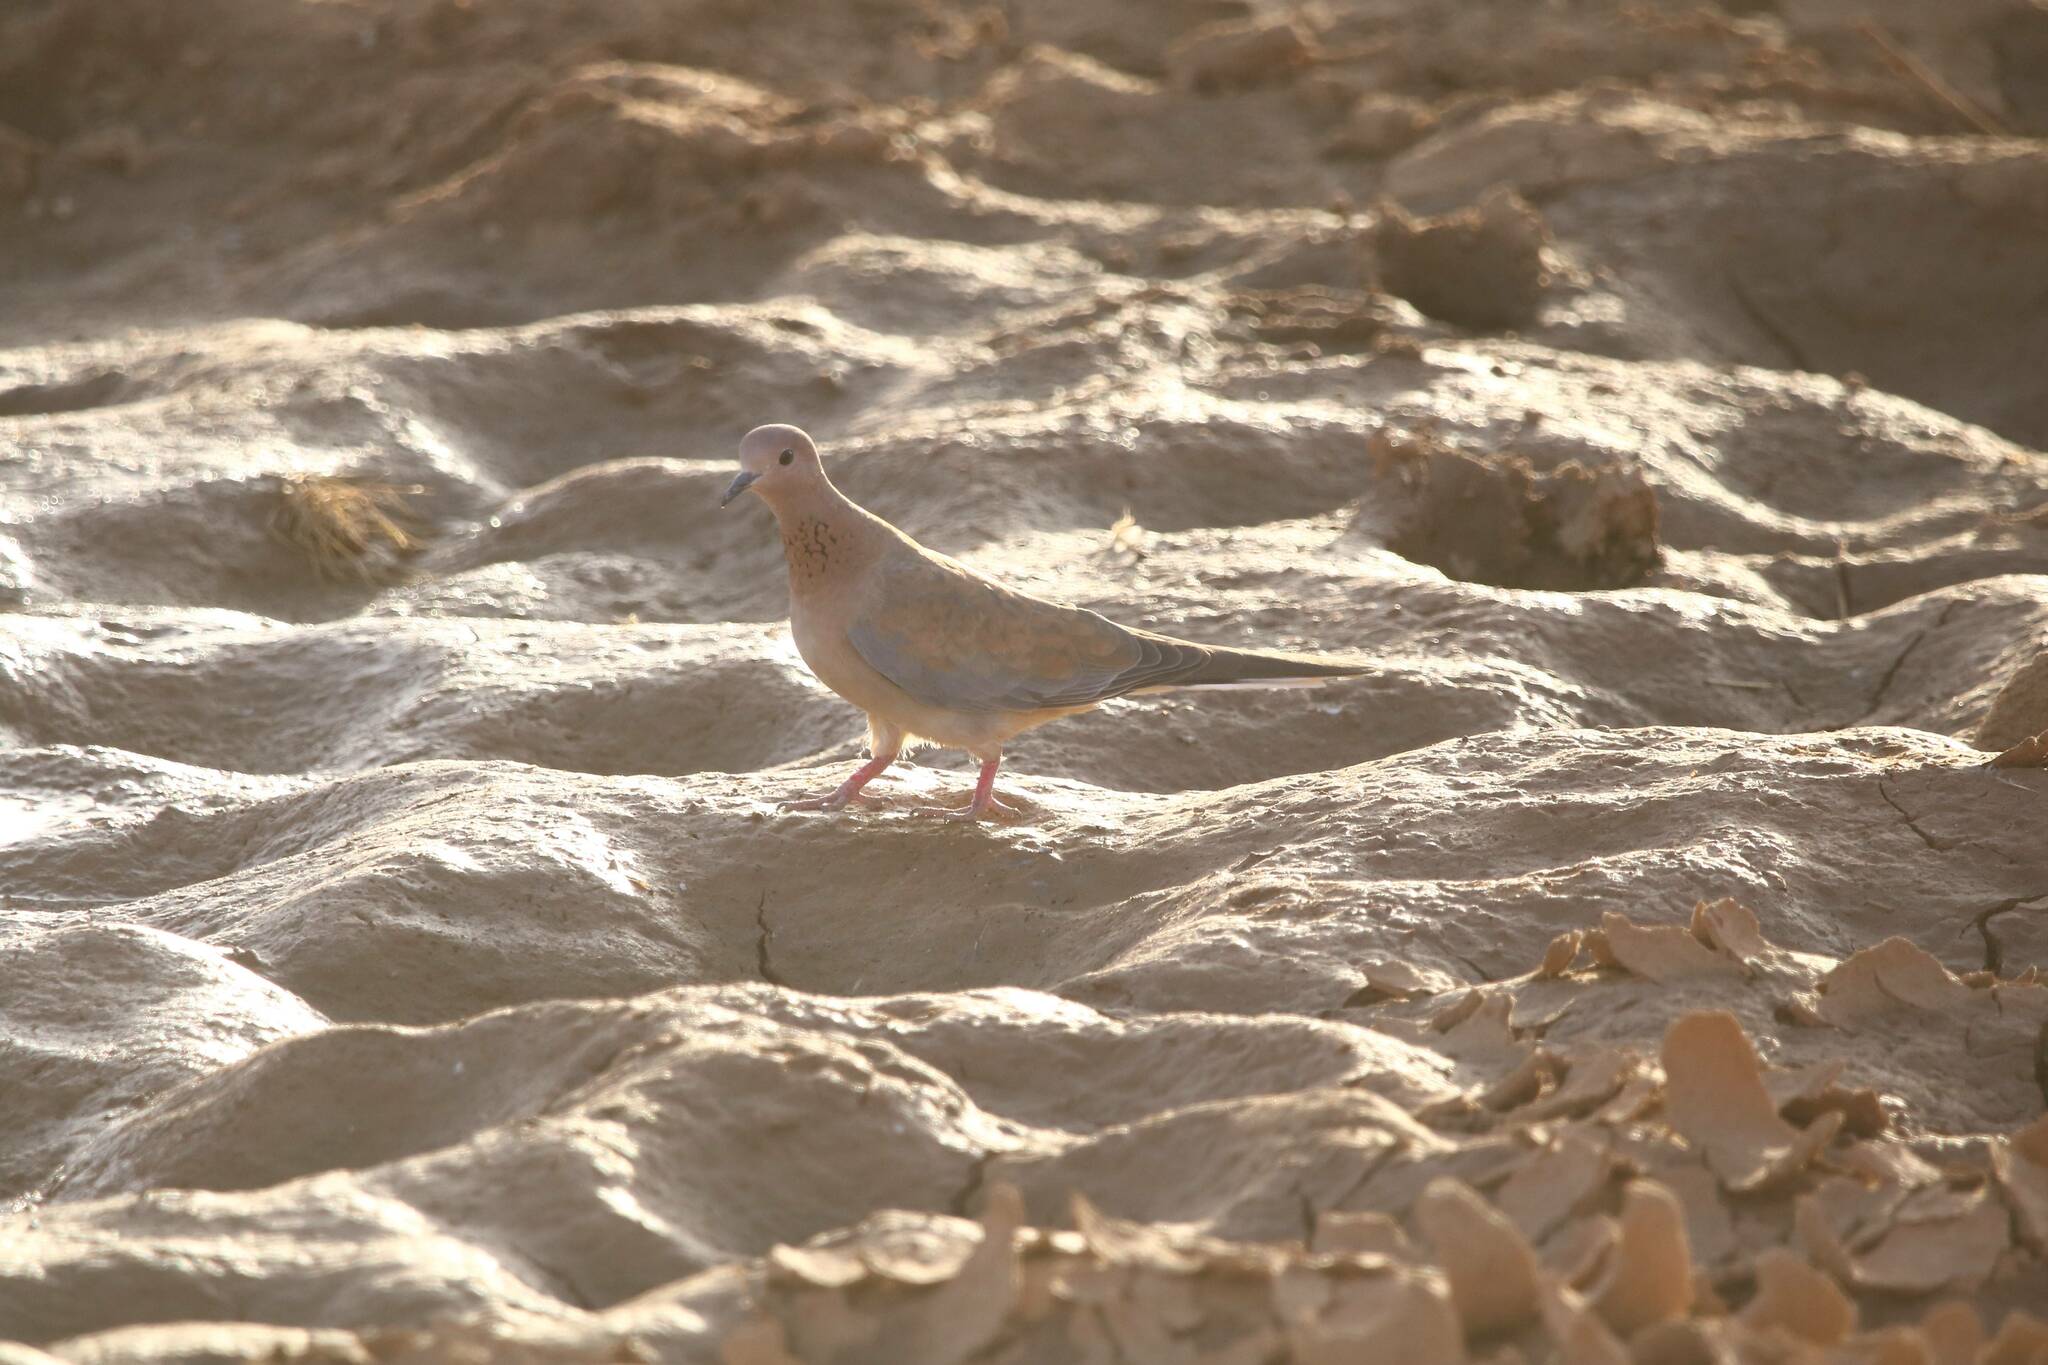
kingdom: Animalia
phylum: Chordata
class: Aves
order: Columbiformes
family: Columbidae
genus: Spilopelia
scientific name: Spilopelia senegalensis
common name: Laughing dove
